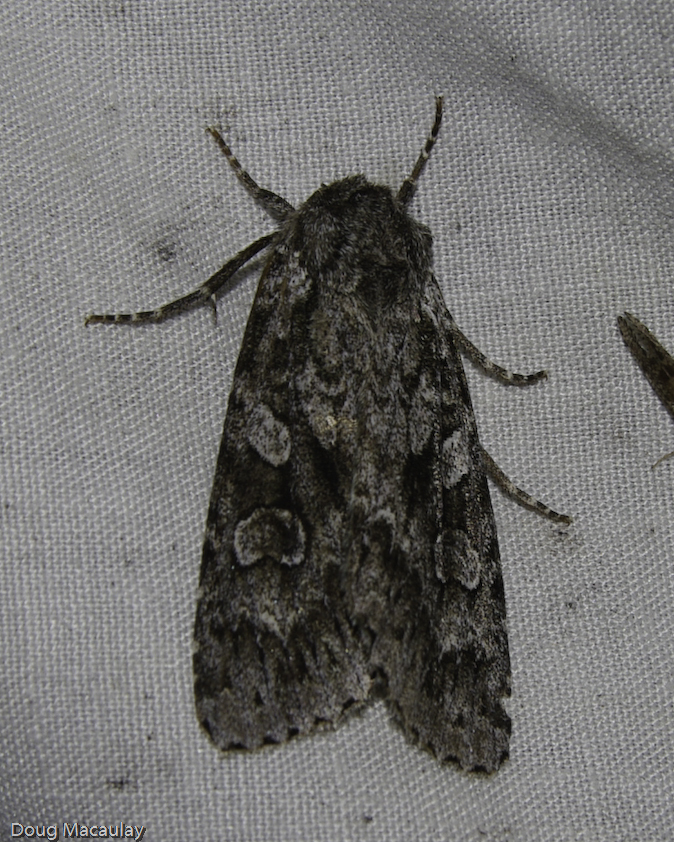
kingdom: Animalia
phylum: Arthropoda
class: Insecta
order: Lepidoptera
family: Noctuidae
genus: Eurois
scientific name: Eurois occulta
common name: Great brocade
